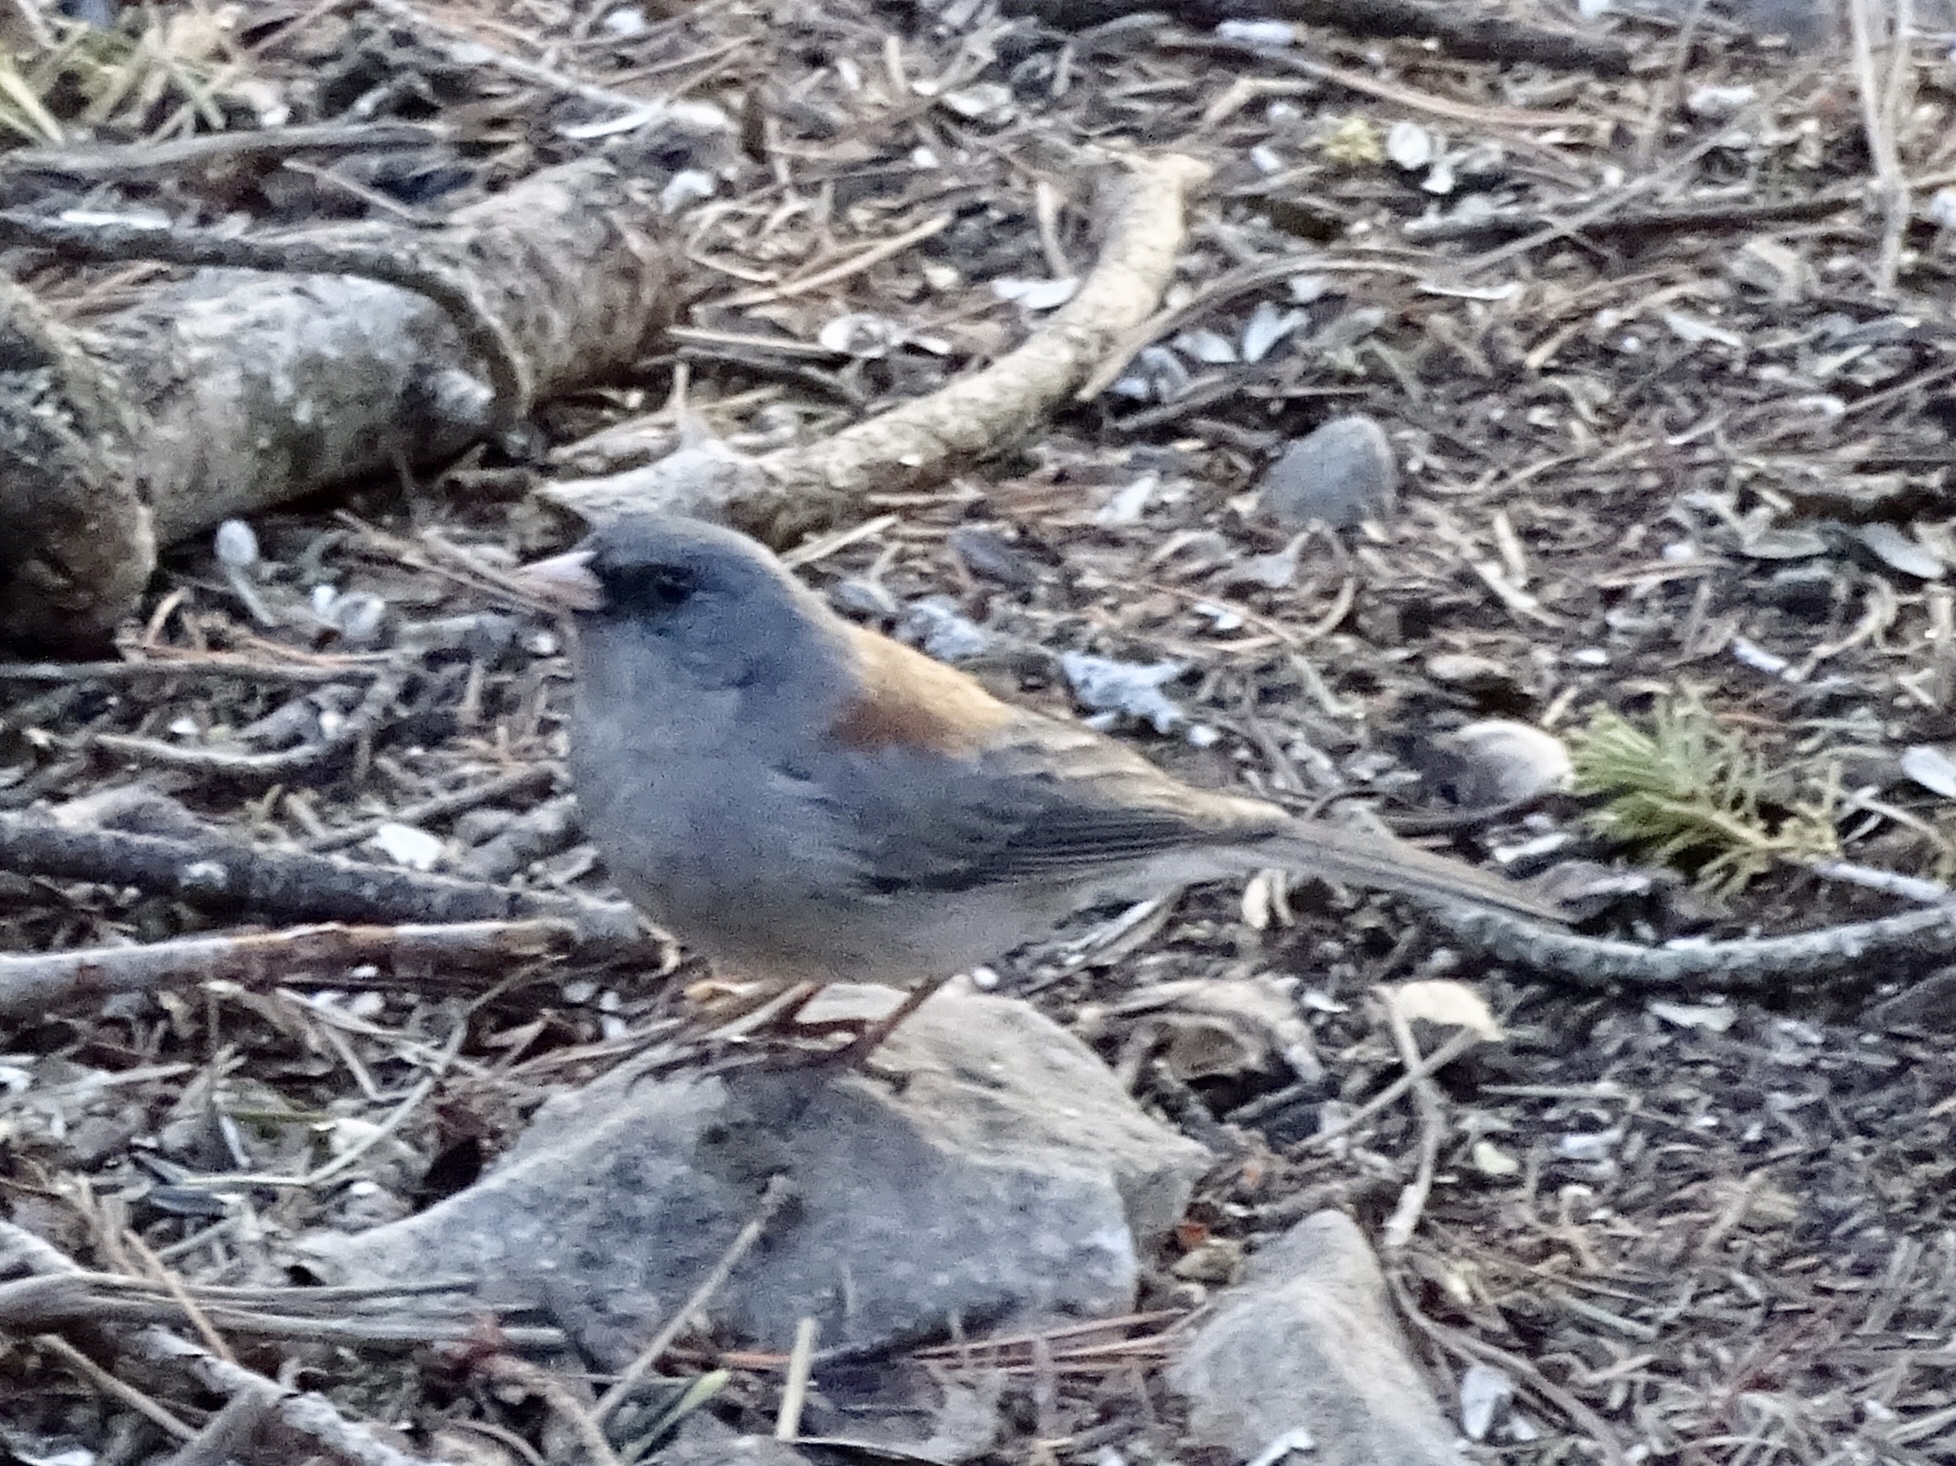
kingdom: Animalia
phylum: Chordata
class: Aves
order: Passeriformes
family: Passerellidae
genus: Junco
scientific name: Junco hyemalis
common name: Dark-eyed junco
